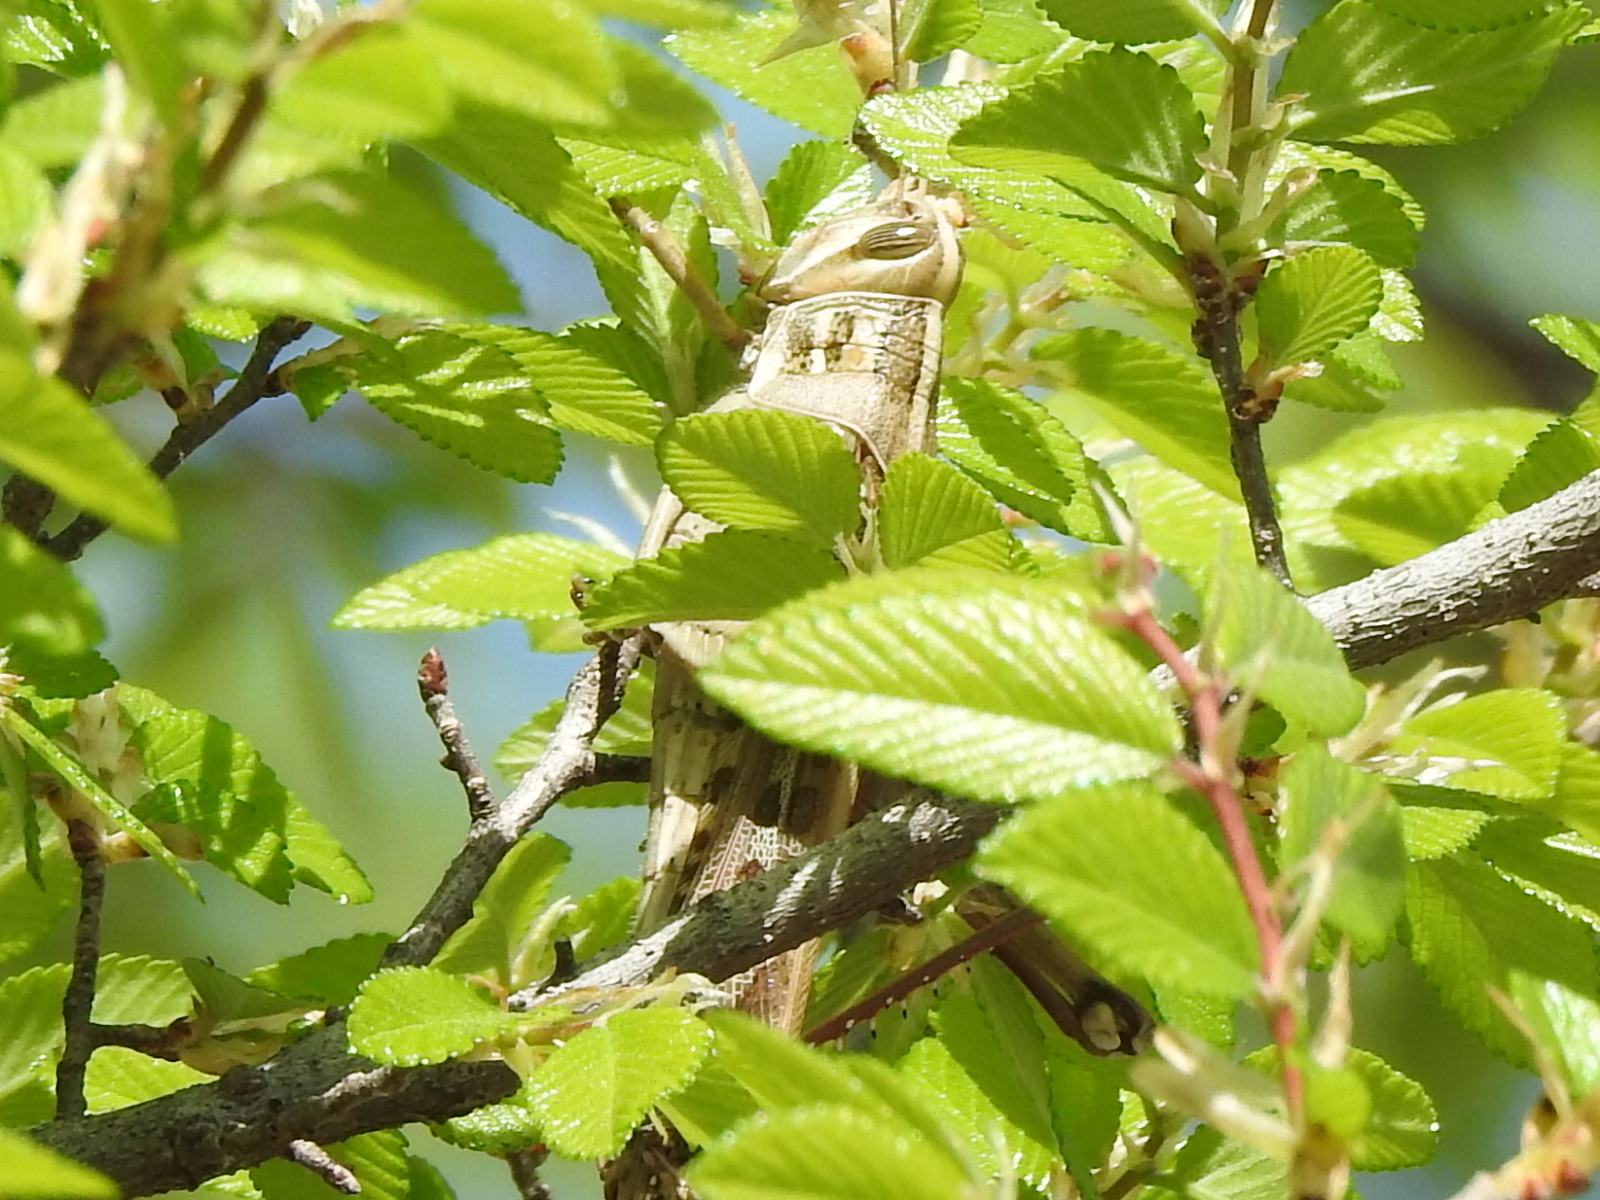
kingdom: Animalia
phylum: Arthropoda
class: Insecta
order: Orthoptera
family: Acrididae
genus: Schistocerca
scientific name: Schistocerca americana
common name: American bird locust
